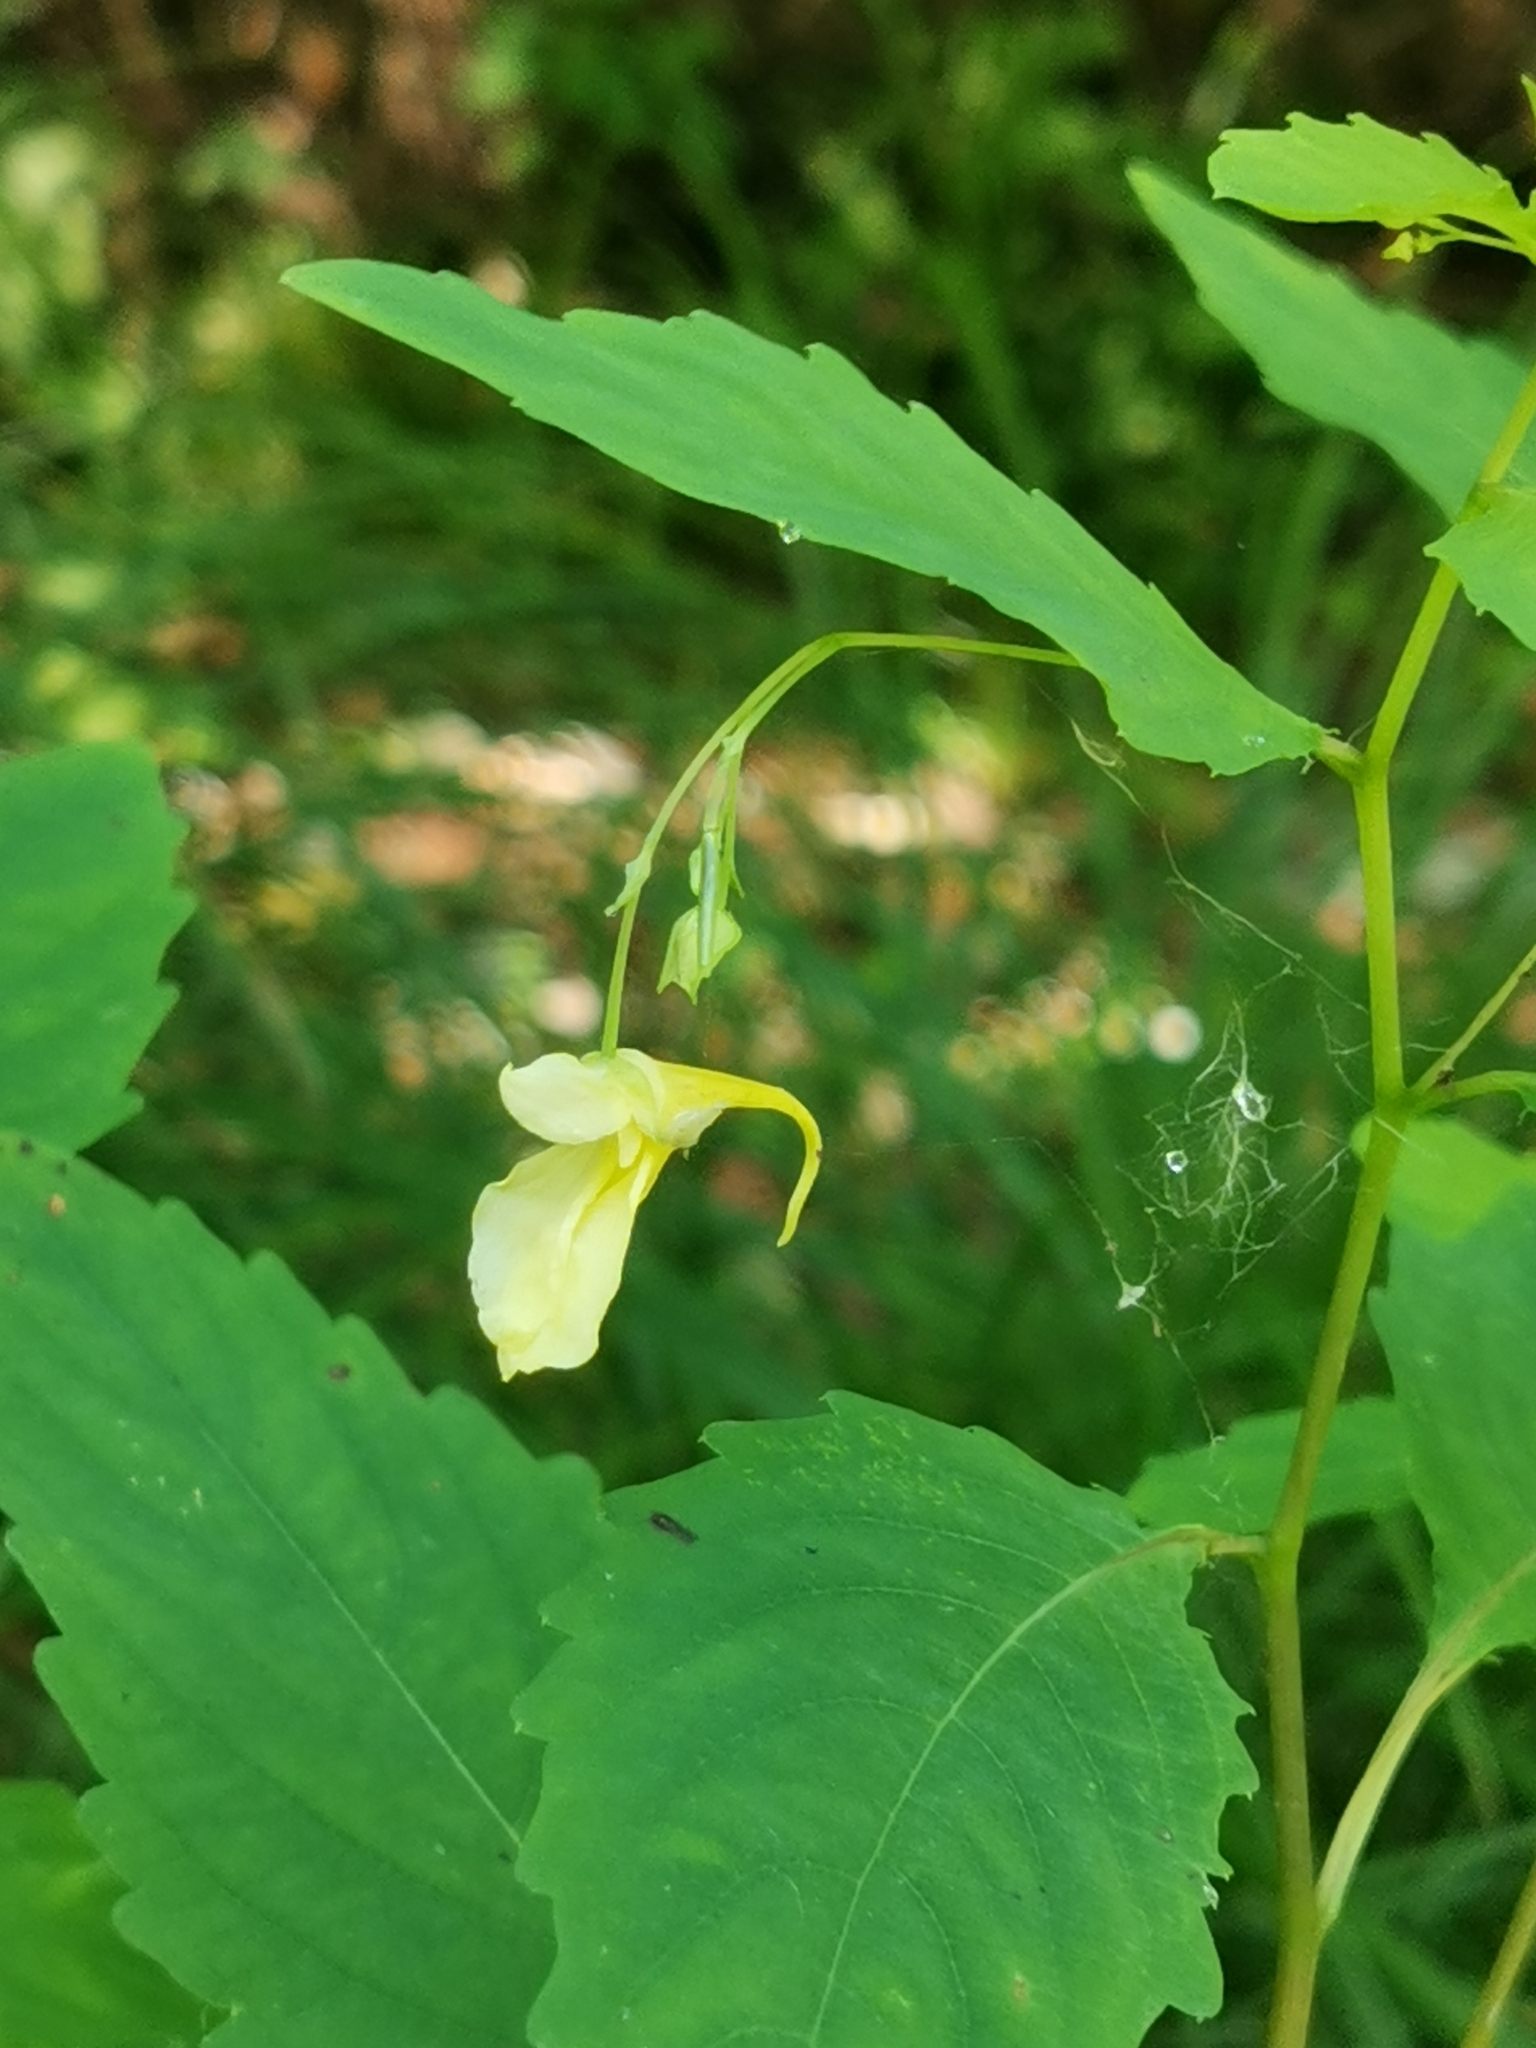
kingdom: Plantae
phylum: Tracheophyta
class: Magnoliopsida
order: Ericales
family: Balsaminaceae
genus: Impatiens
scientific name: Impatiens noli-tangere
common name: Touch-me-not balsam
